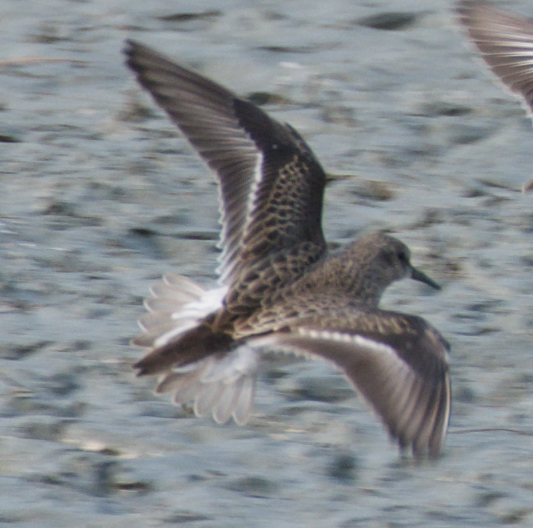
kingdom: Animalia
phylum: Chordata
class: Aves
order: Charadriiformes
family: Scolopacidae
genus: Calidris
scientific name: Calidris minutilla
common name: Least sandpiper
